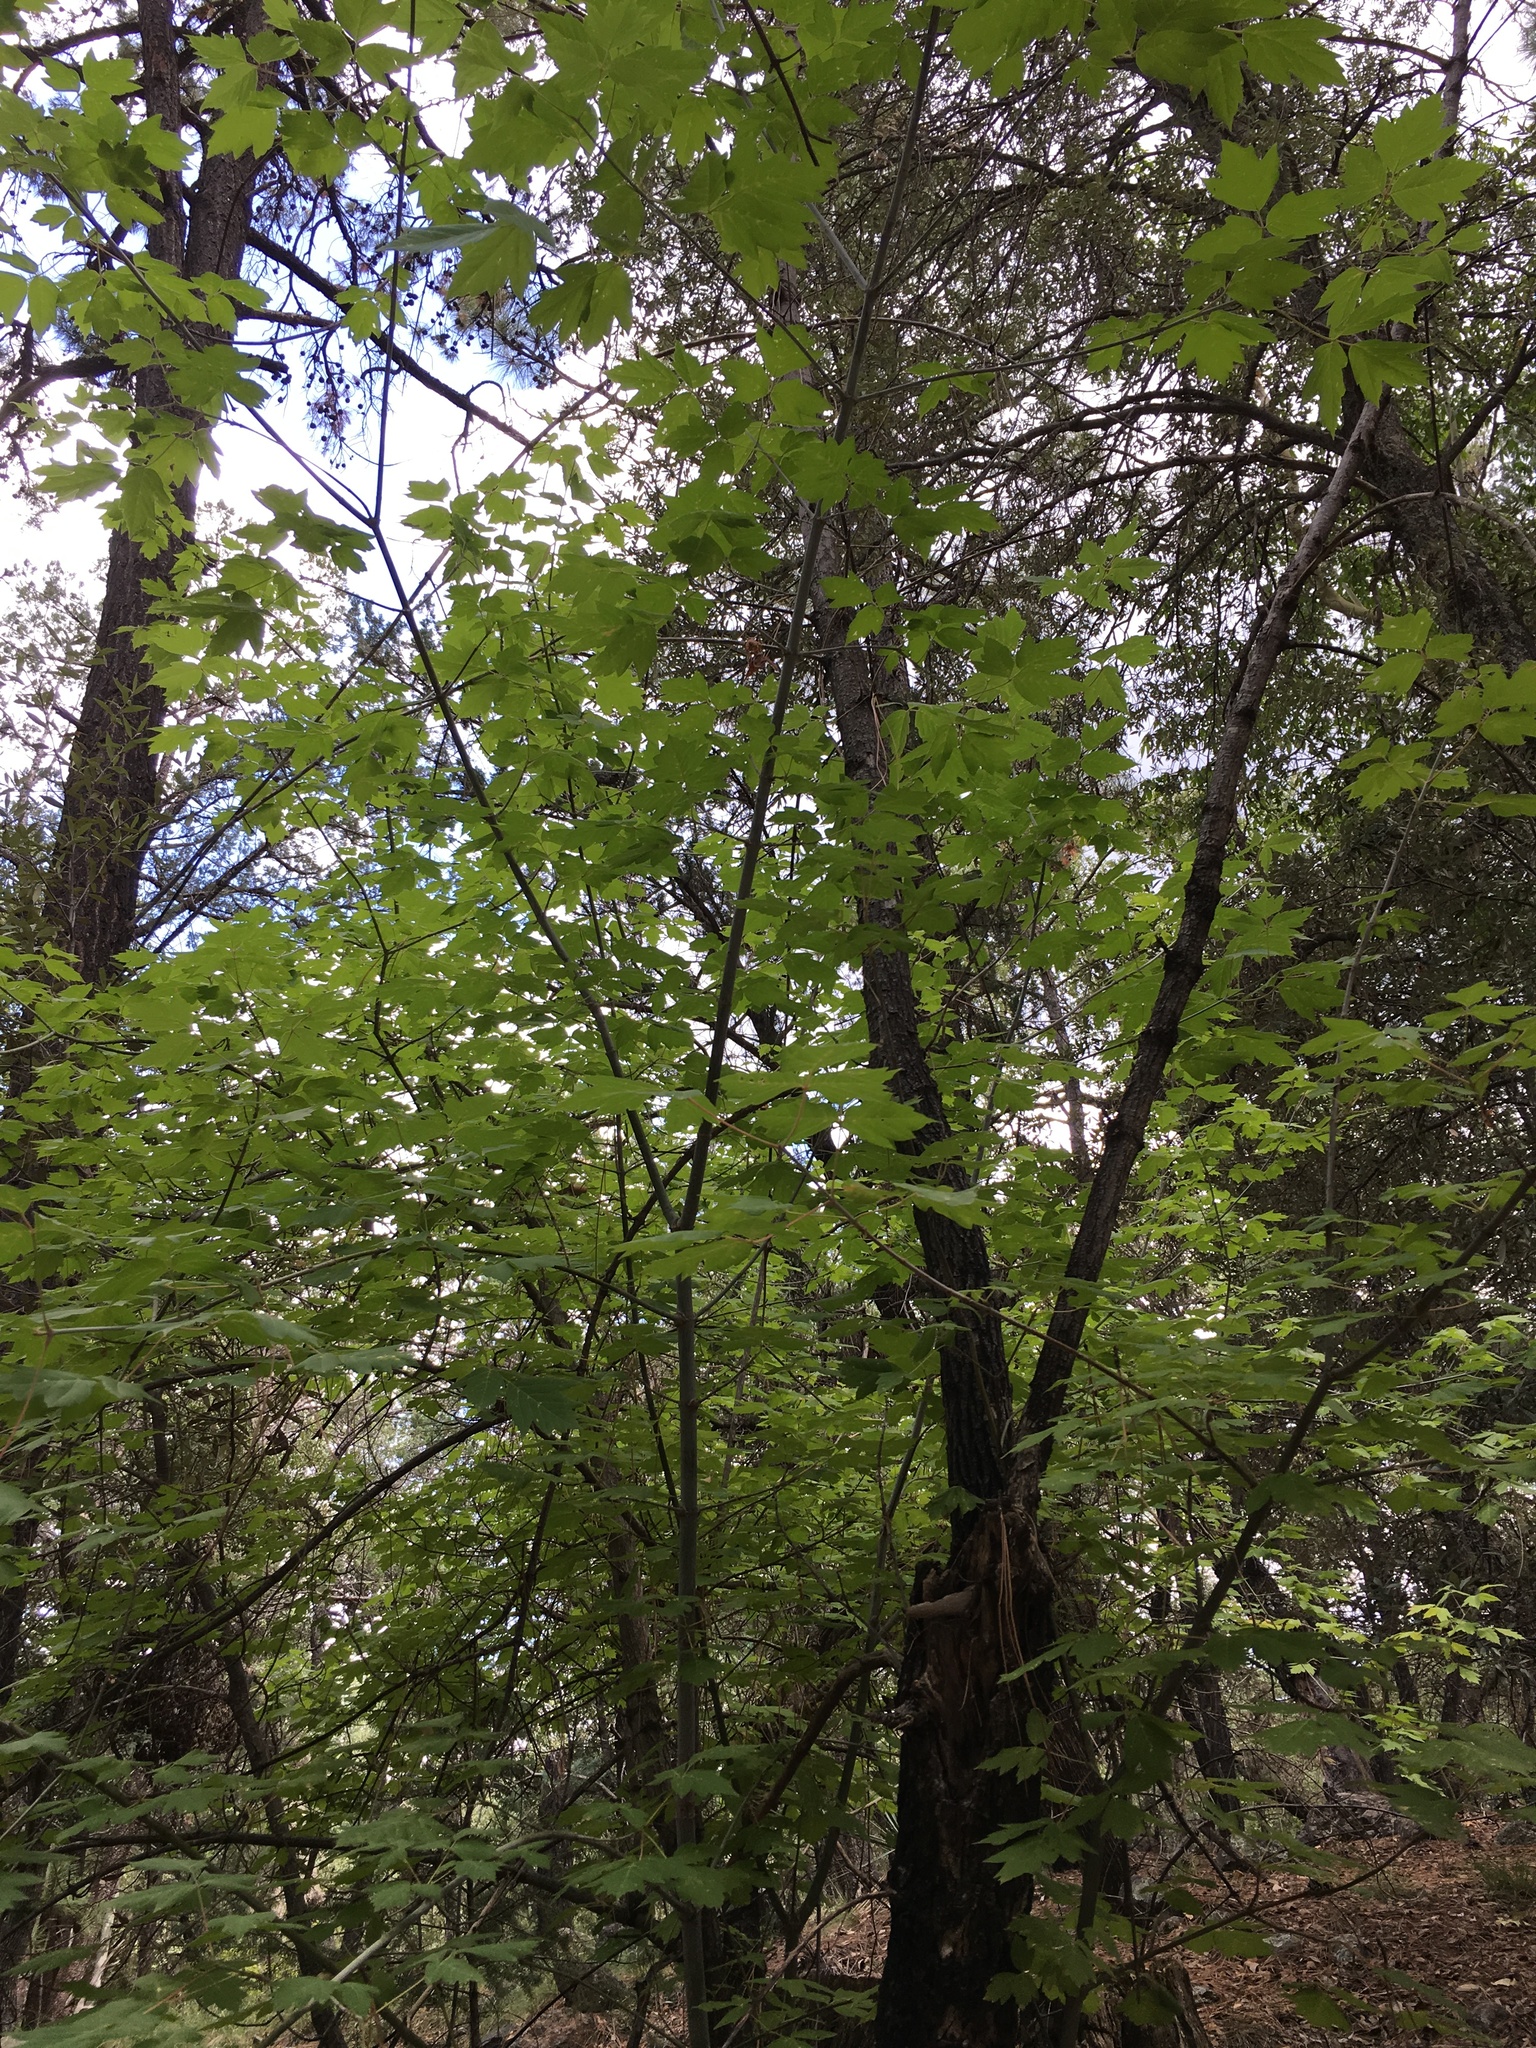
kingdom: Plantae
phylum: Tracheophyta
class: Magnoliopsida
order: Sapindales
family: Sapindaceae
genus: Acer
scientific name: Acer negundo
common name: Ashleaf maple
